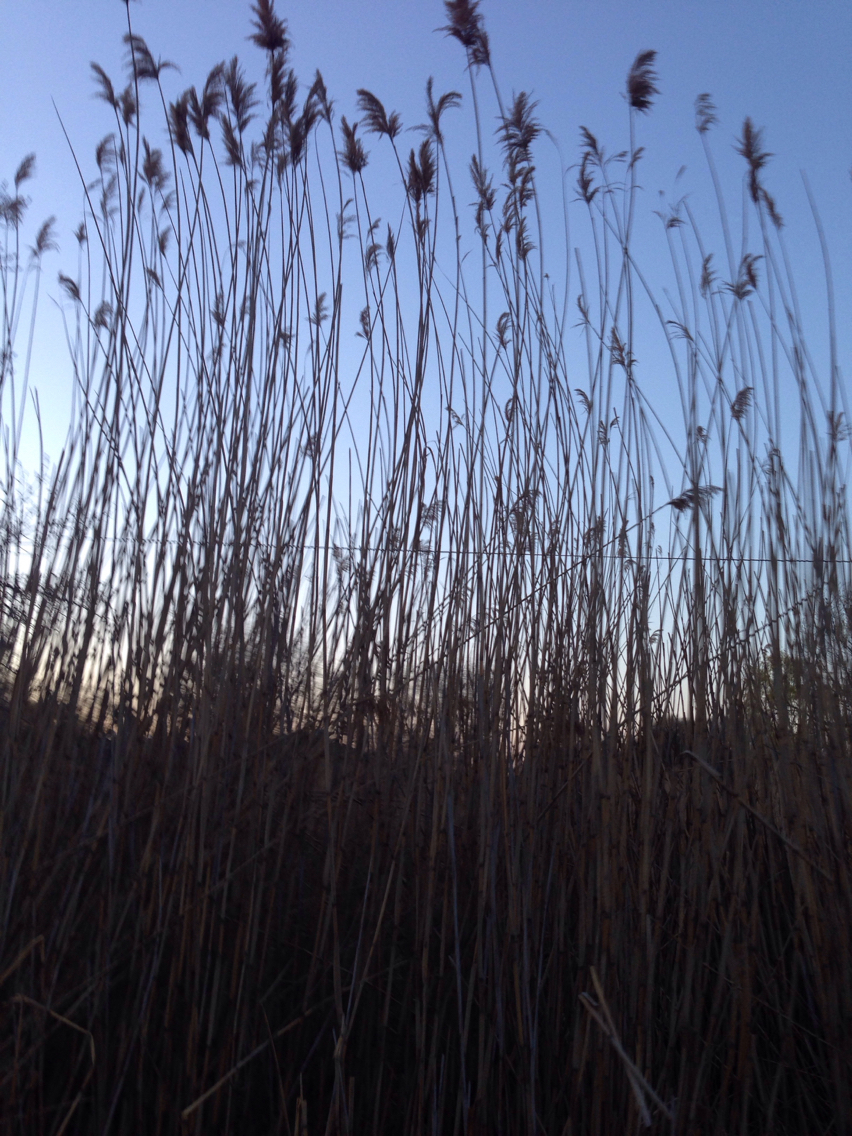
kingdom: Plantae
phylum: Tracheophyta
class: Liliopsida
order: Poales
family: Poaceae
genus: Phragmites
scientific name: Phragmites australis
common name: Common reed
